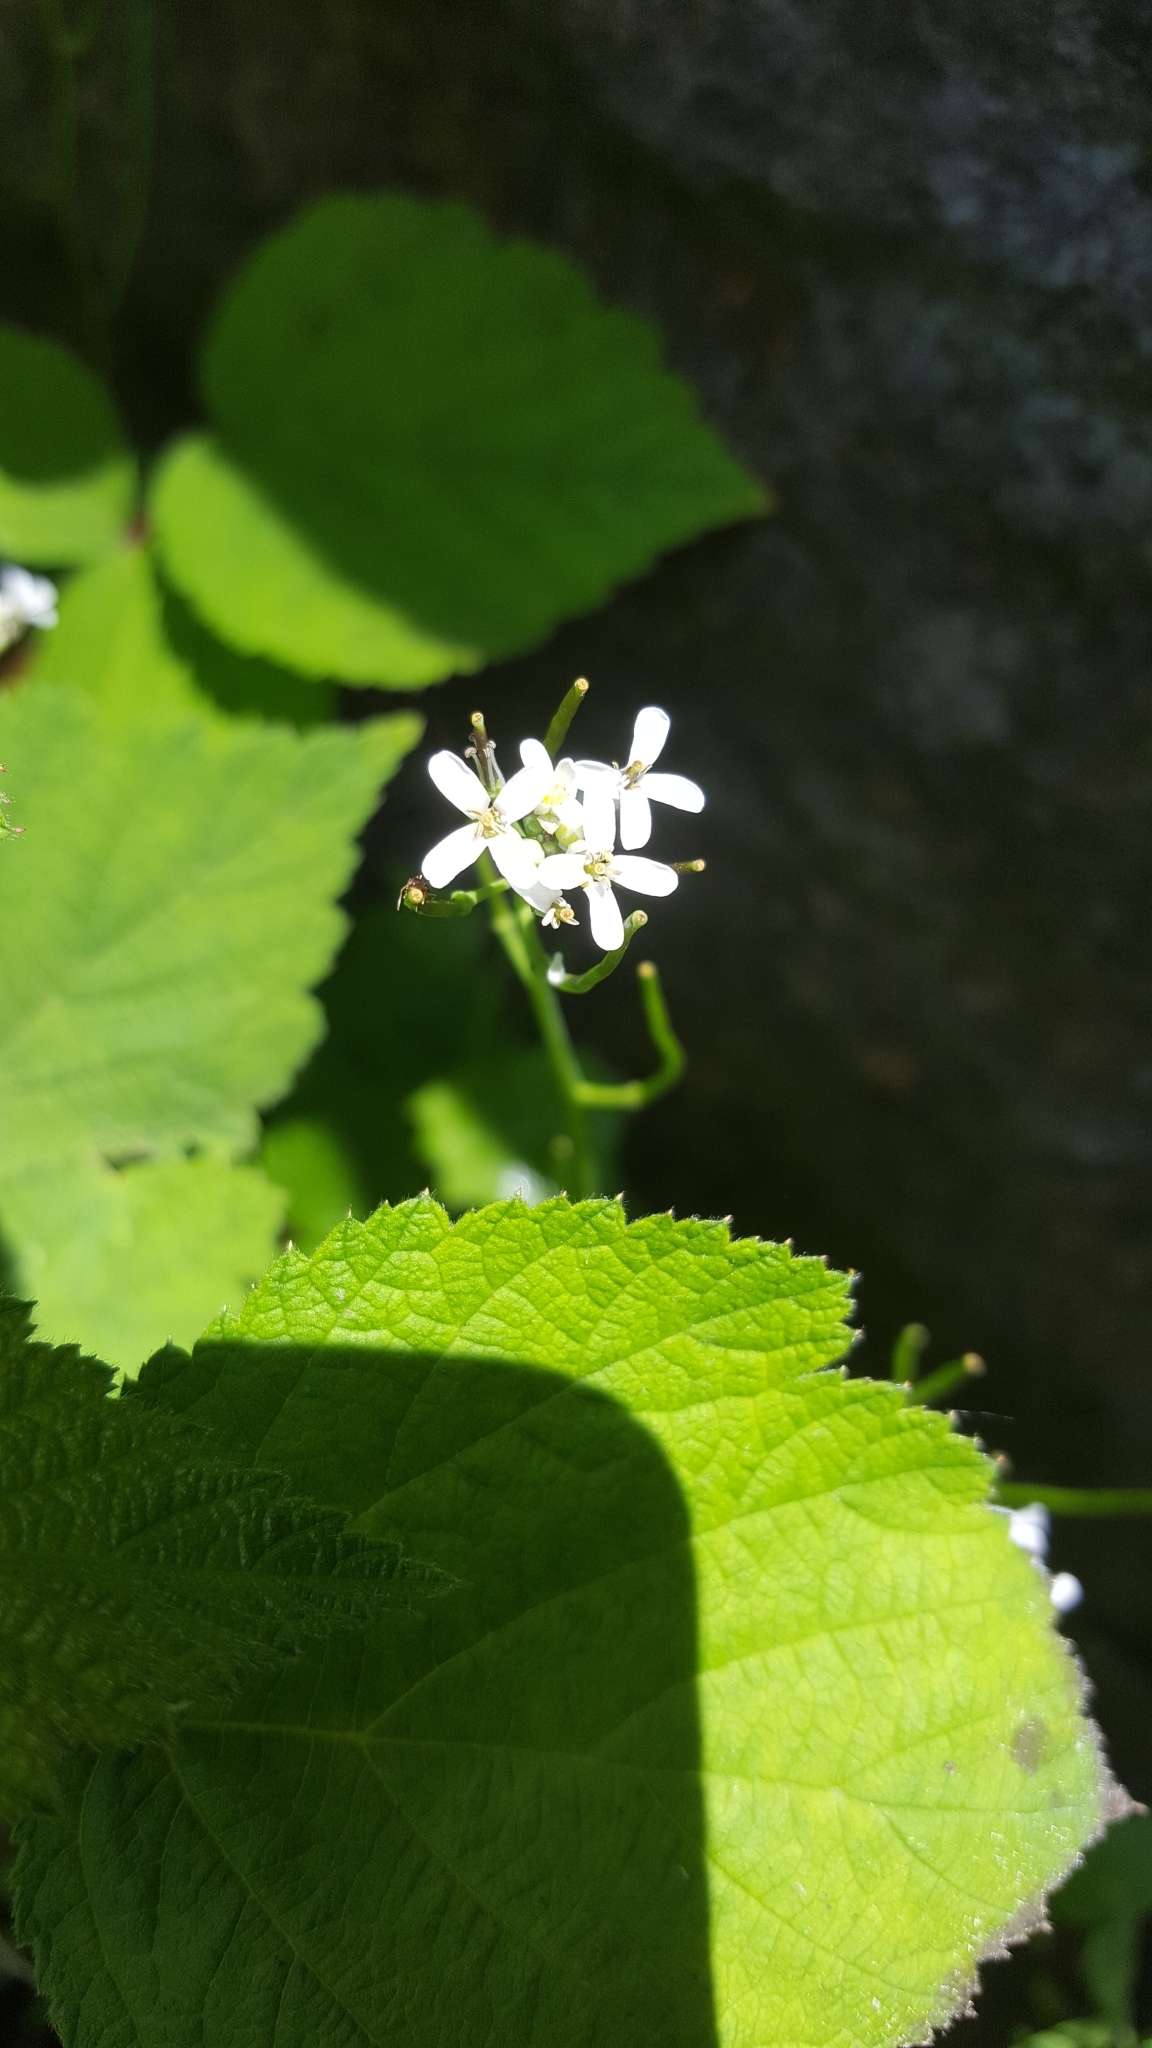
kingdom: Plantae
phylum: Tracheophyta
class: Magnoliopsida
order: Brassicales
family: Brassicaceae
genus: Alliaria
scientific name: Alliaria petiolata
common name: Garlic mustard
